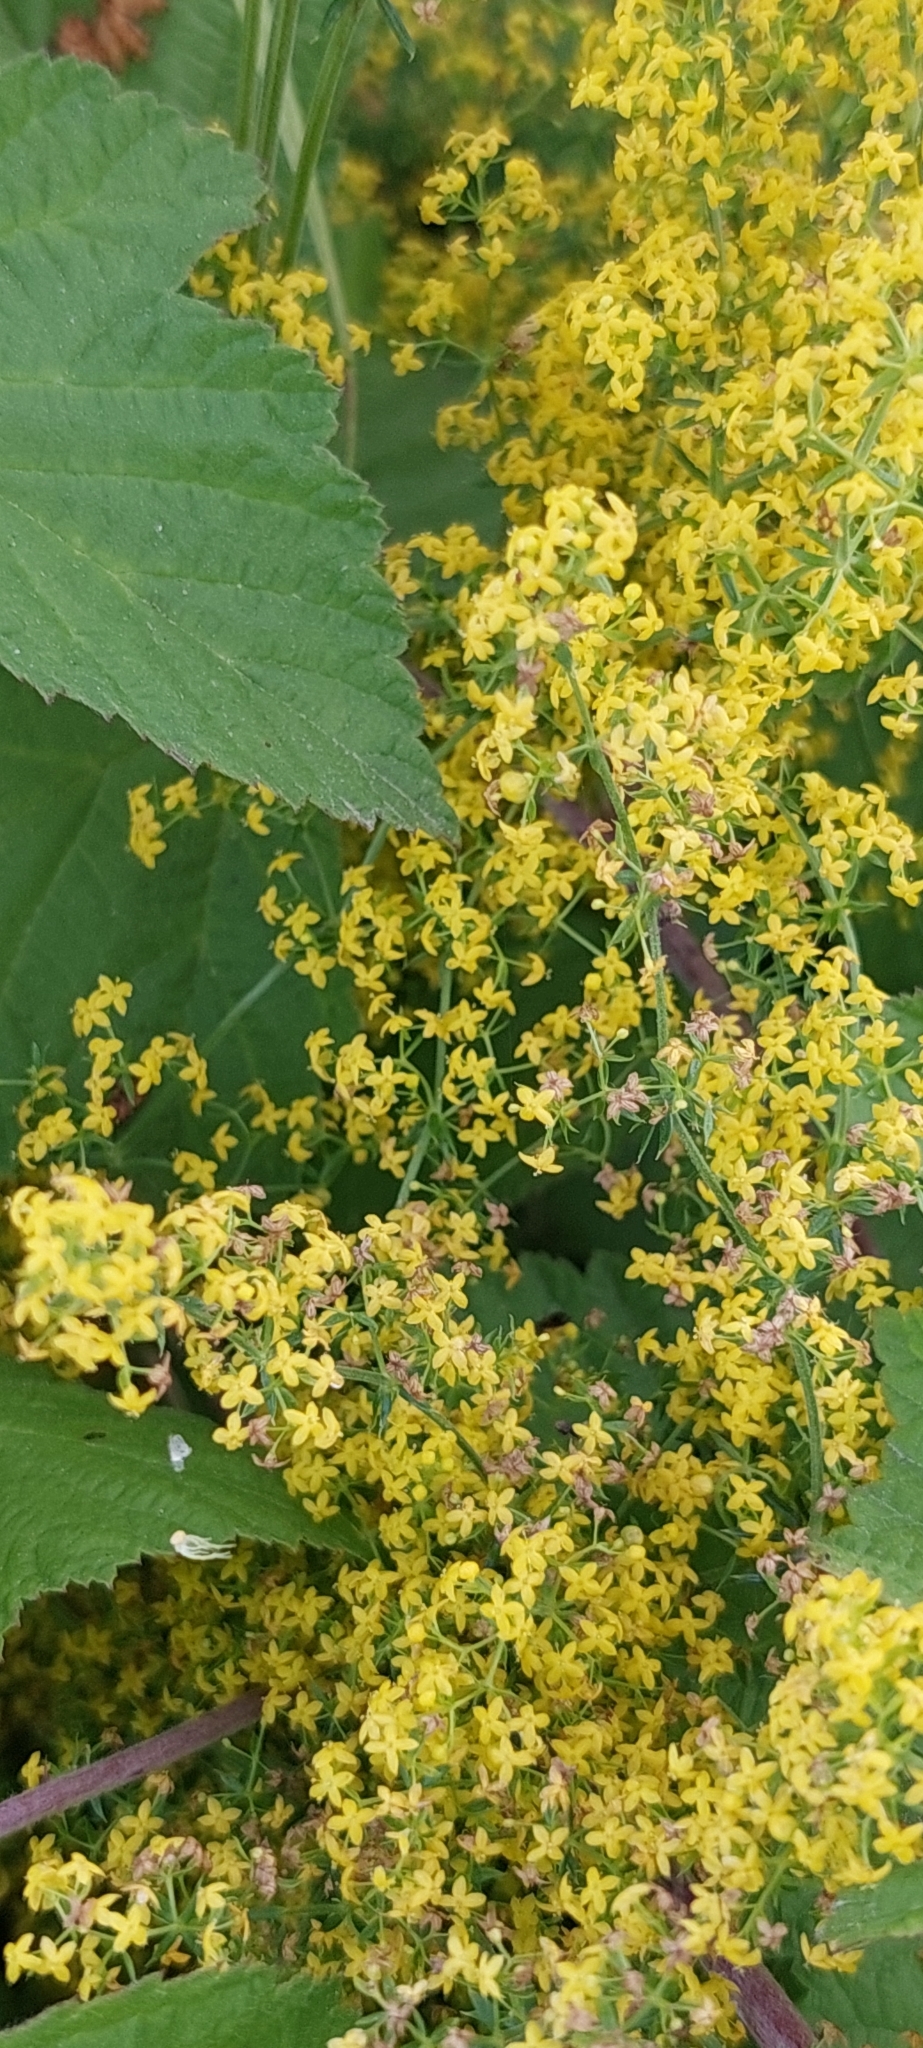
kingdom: Plantae
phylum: Tracheophyta
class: Magnoliopsida
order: Gentianales
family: Rubiaceae
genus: Galium
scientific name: Galium verum
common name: Lady's bedstraw
